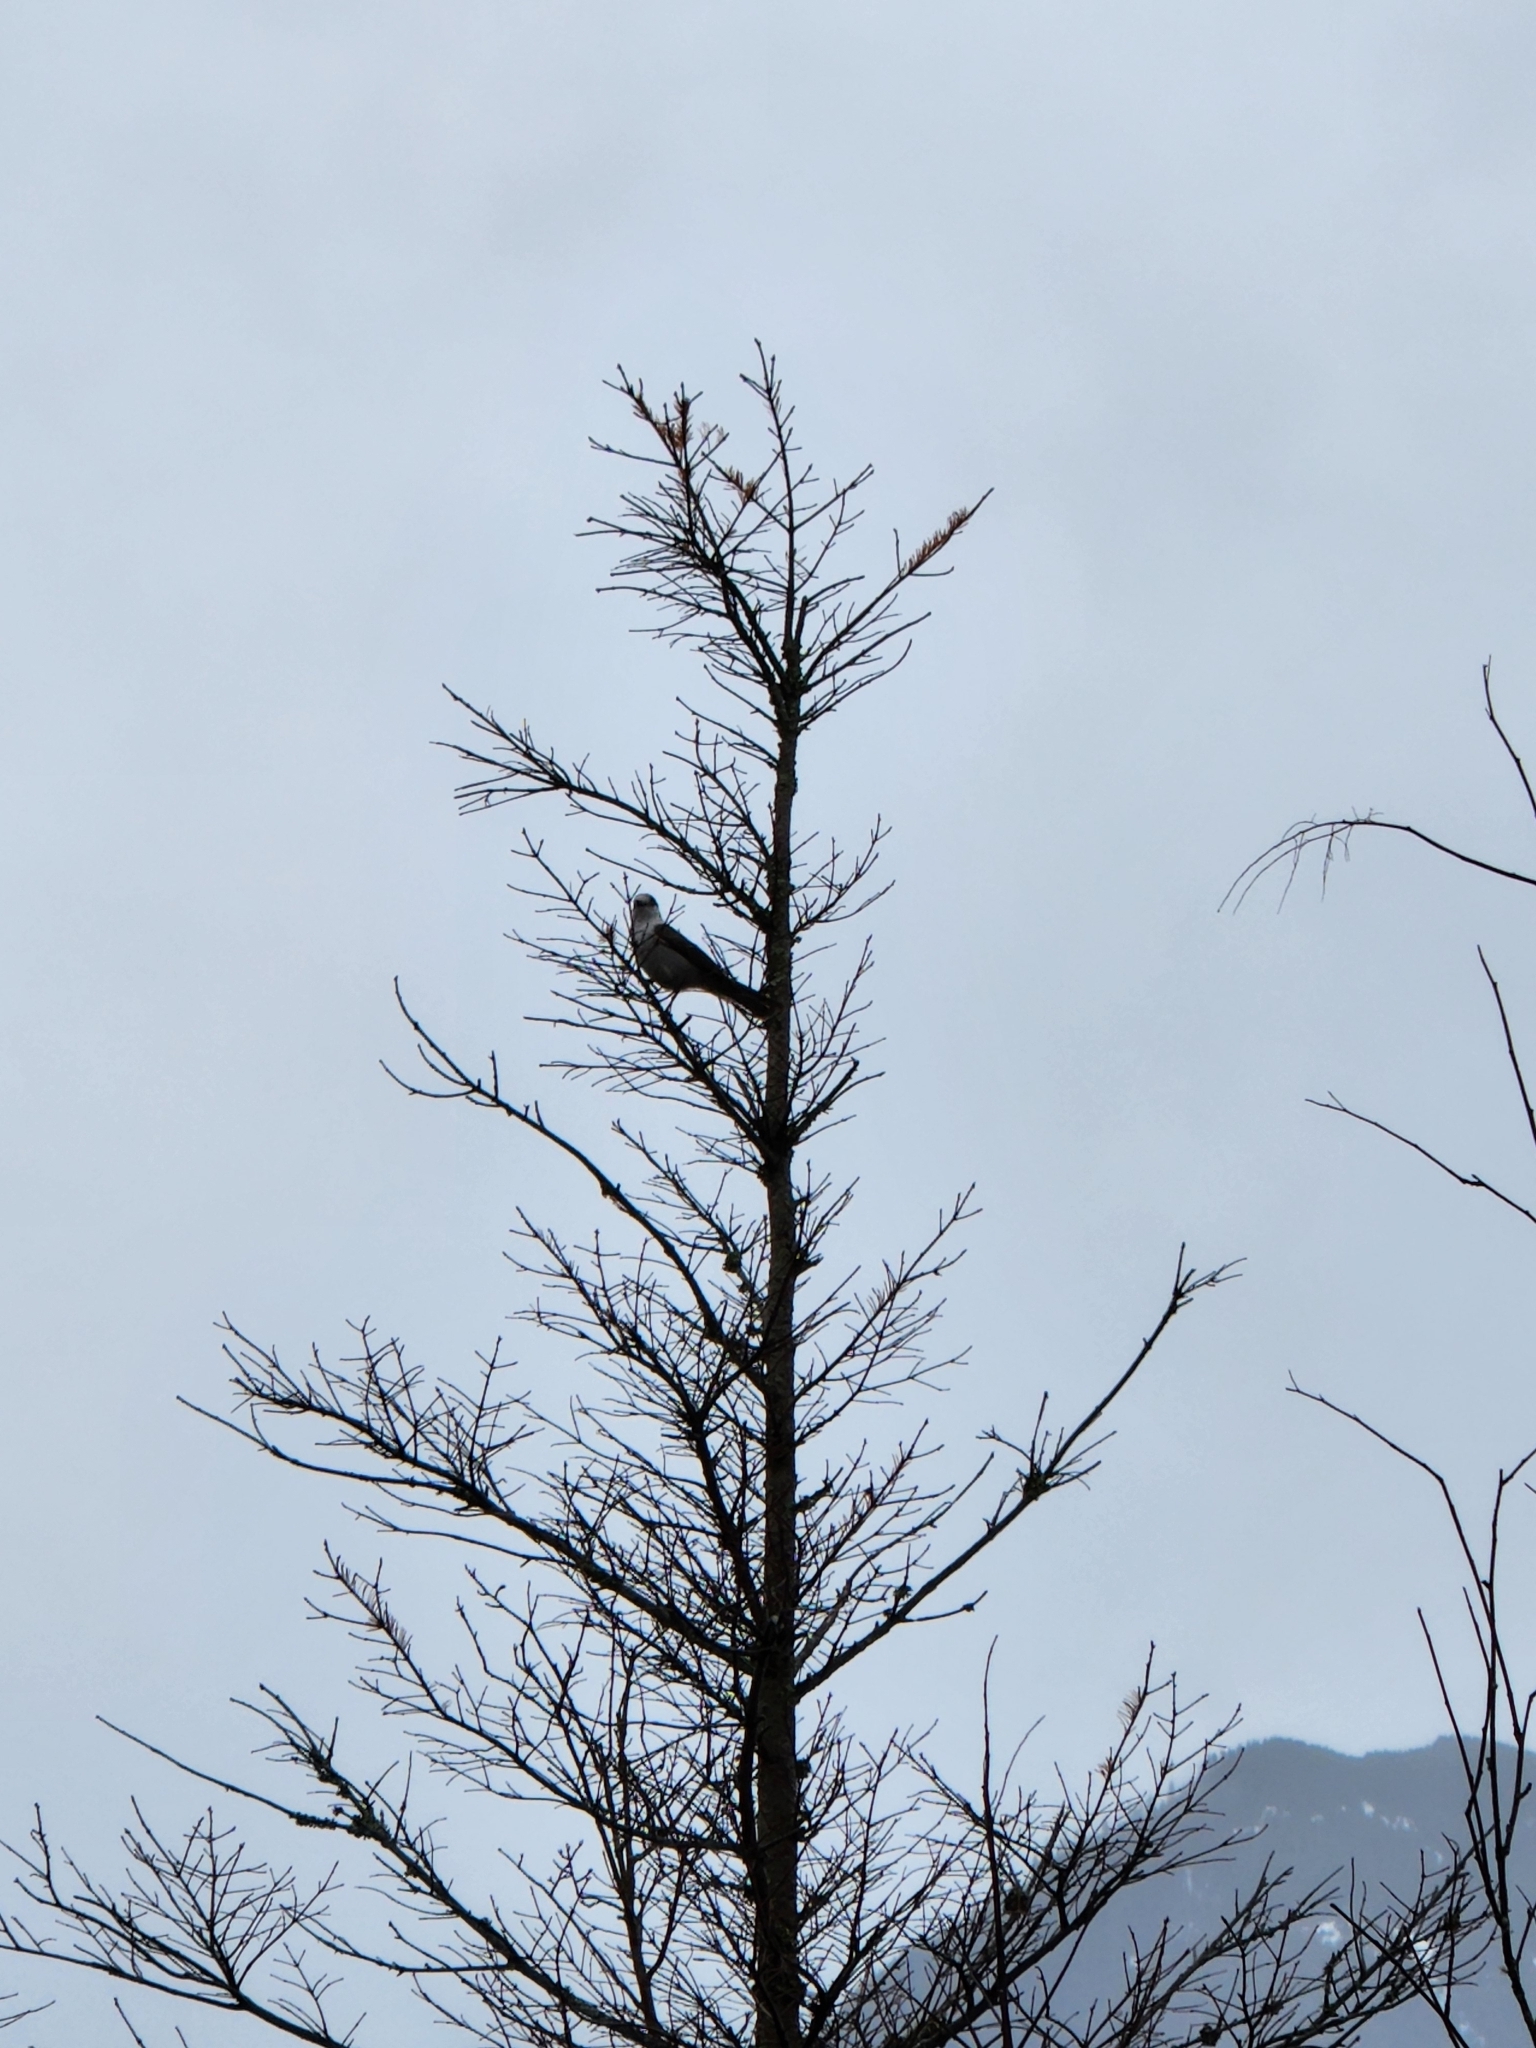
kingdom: Animalia
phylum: Chordata
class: Aves
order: Passeriformes
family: Corvidae
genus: Perisoreus
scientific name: Perisoreus canadensis
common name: Gray jay
